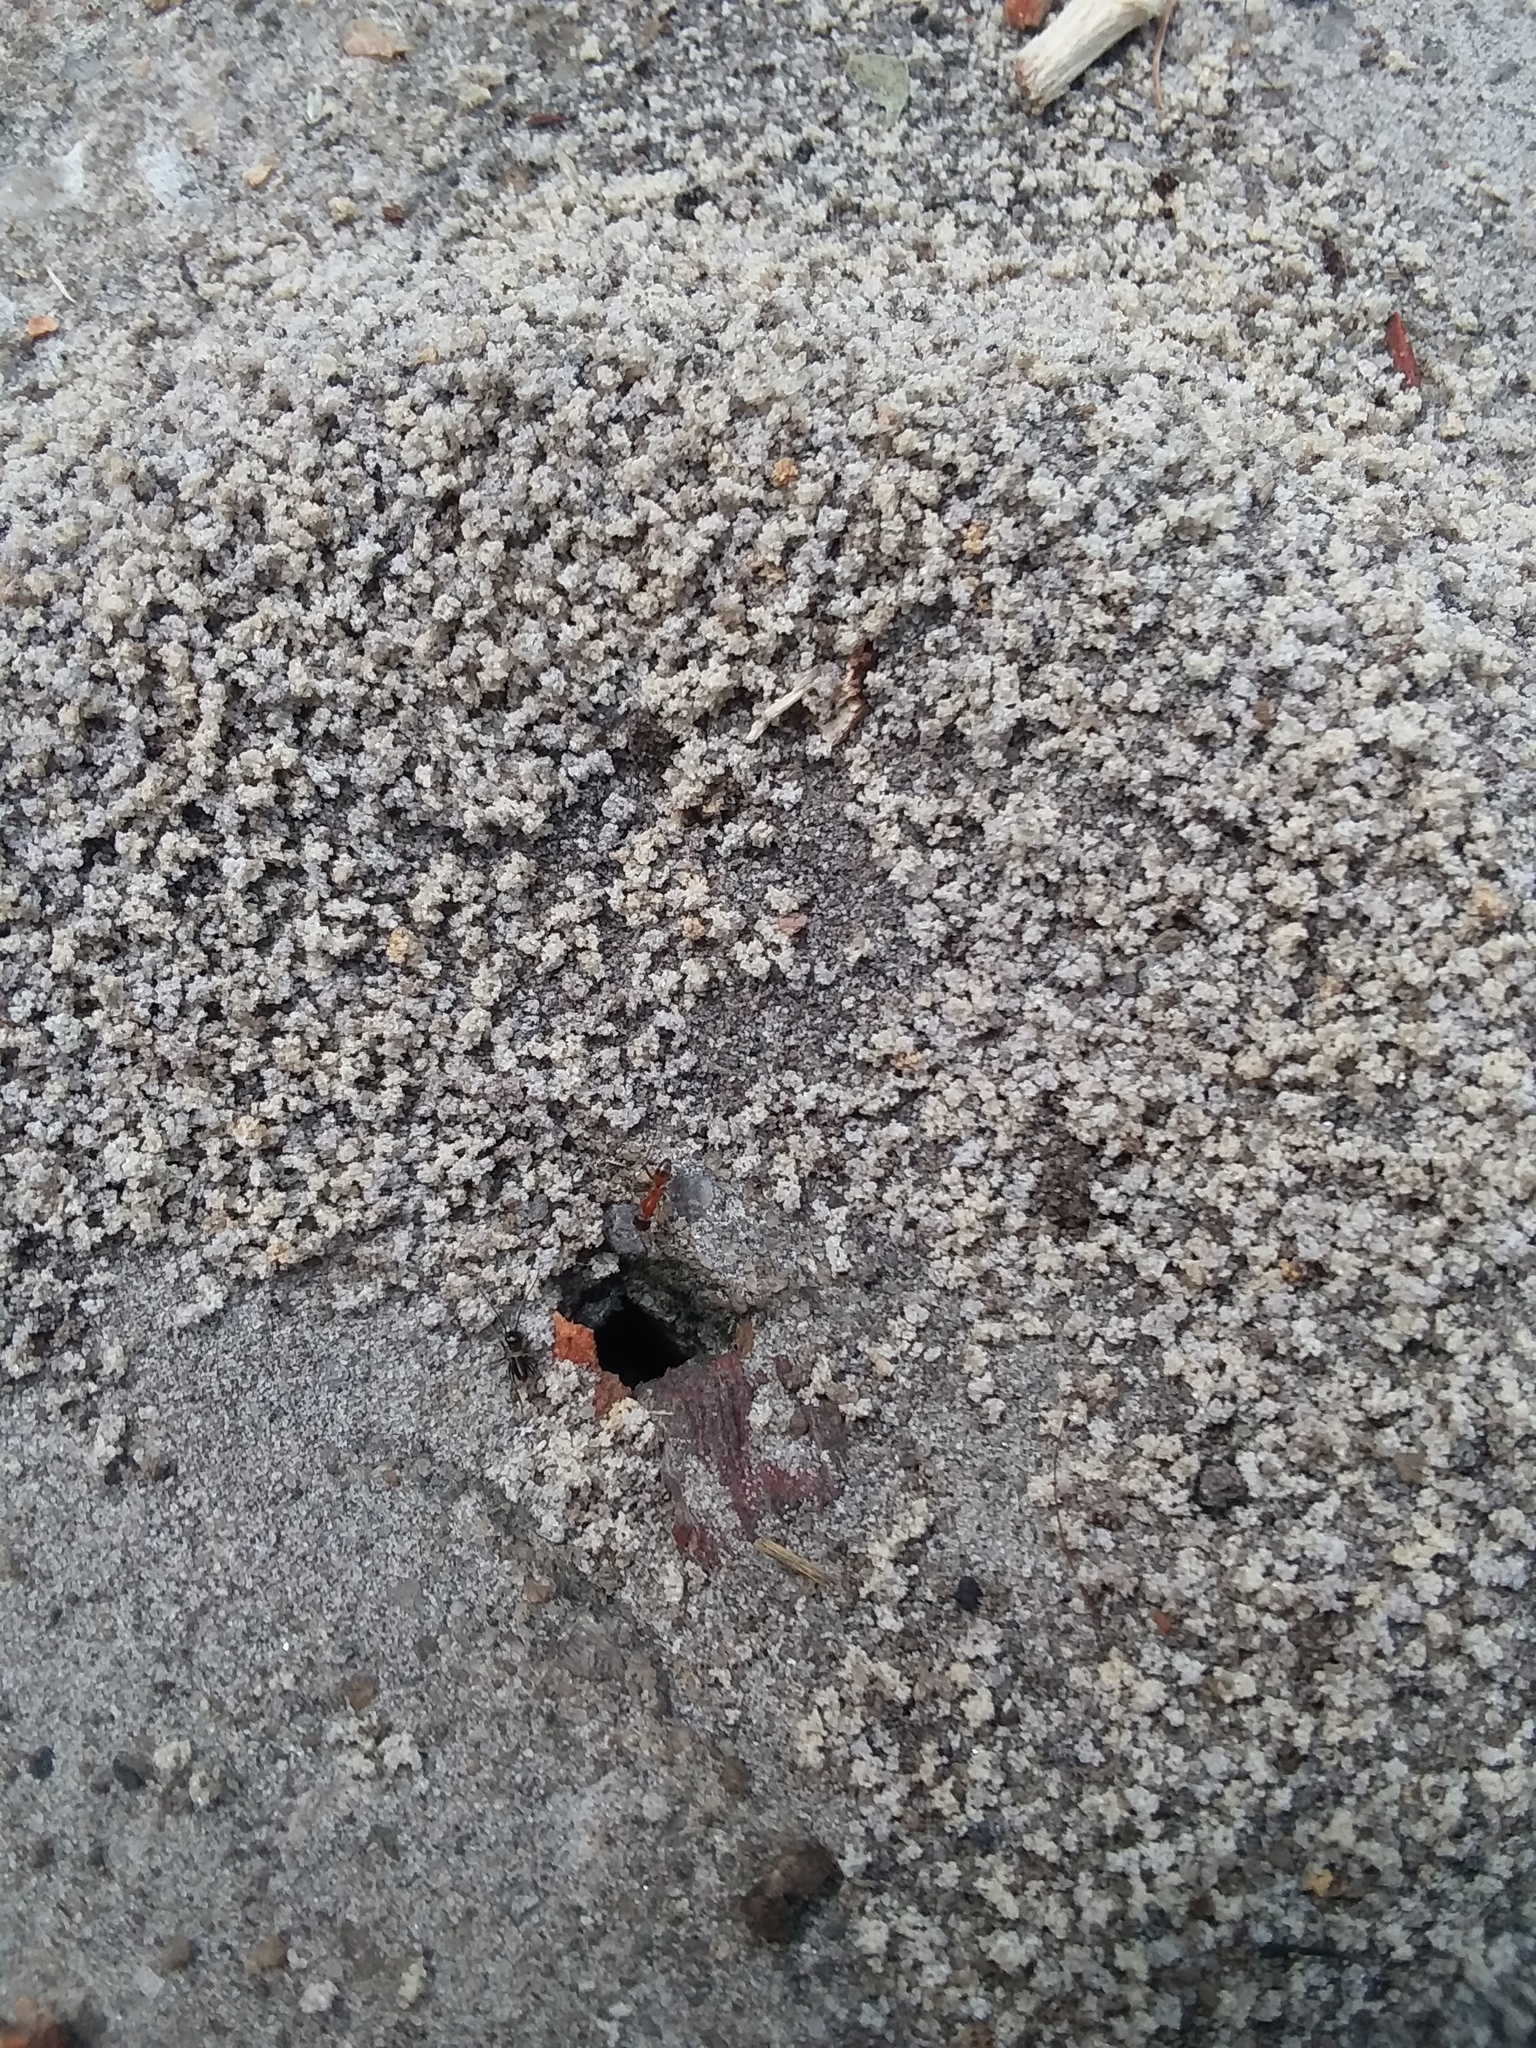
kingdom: Animalia
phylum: Arthropoda
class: Insecta
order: Hymenoptera
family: Formicidae
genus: Dorymyrmex
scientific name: Dorymyrmex bureni
